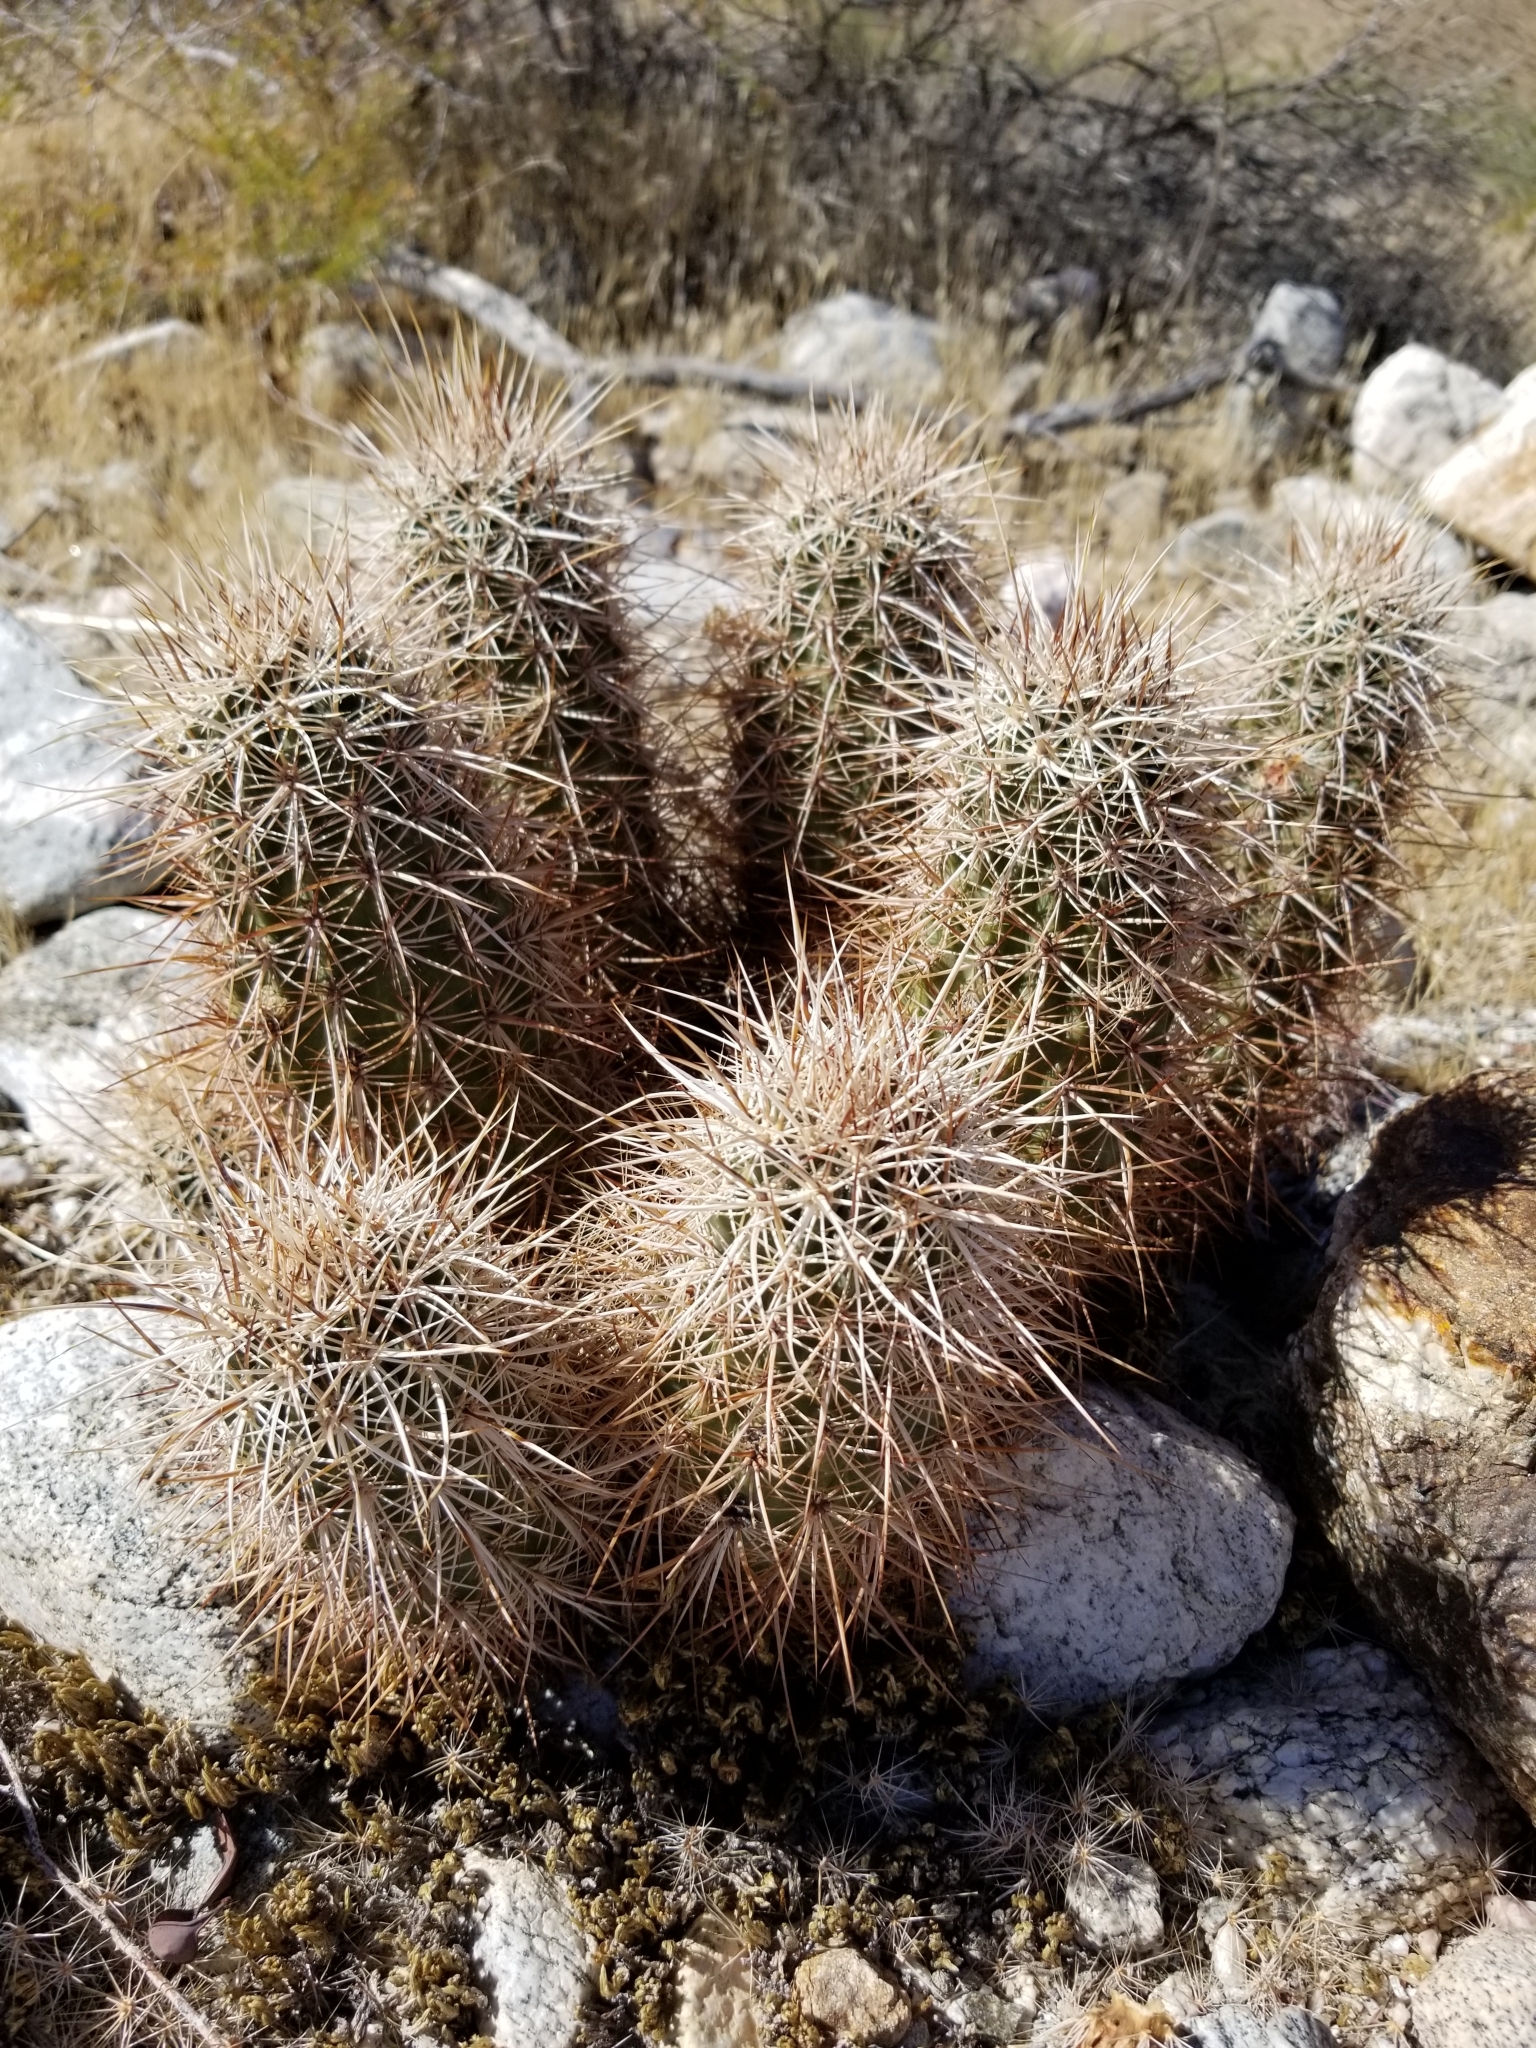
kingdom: Plantae
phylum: Tracheophyta
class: Magnoliopsida
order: Caryophyllales
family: Cactaceae
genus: Echinocereus
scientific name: Echinocereus engelmannii
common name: Engelmann's hedgehog cactus
